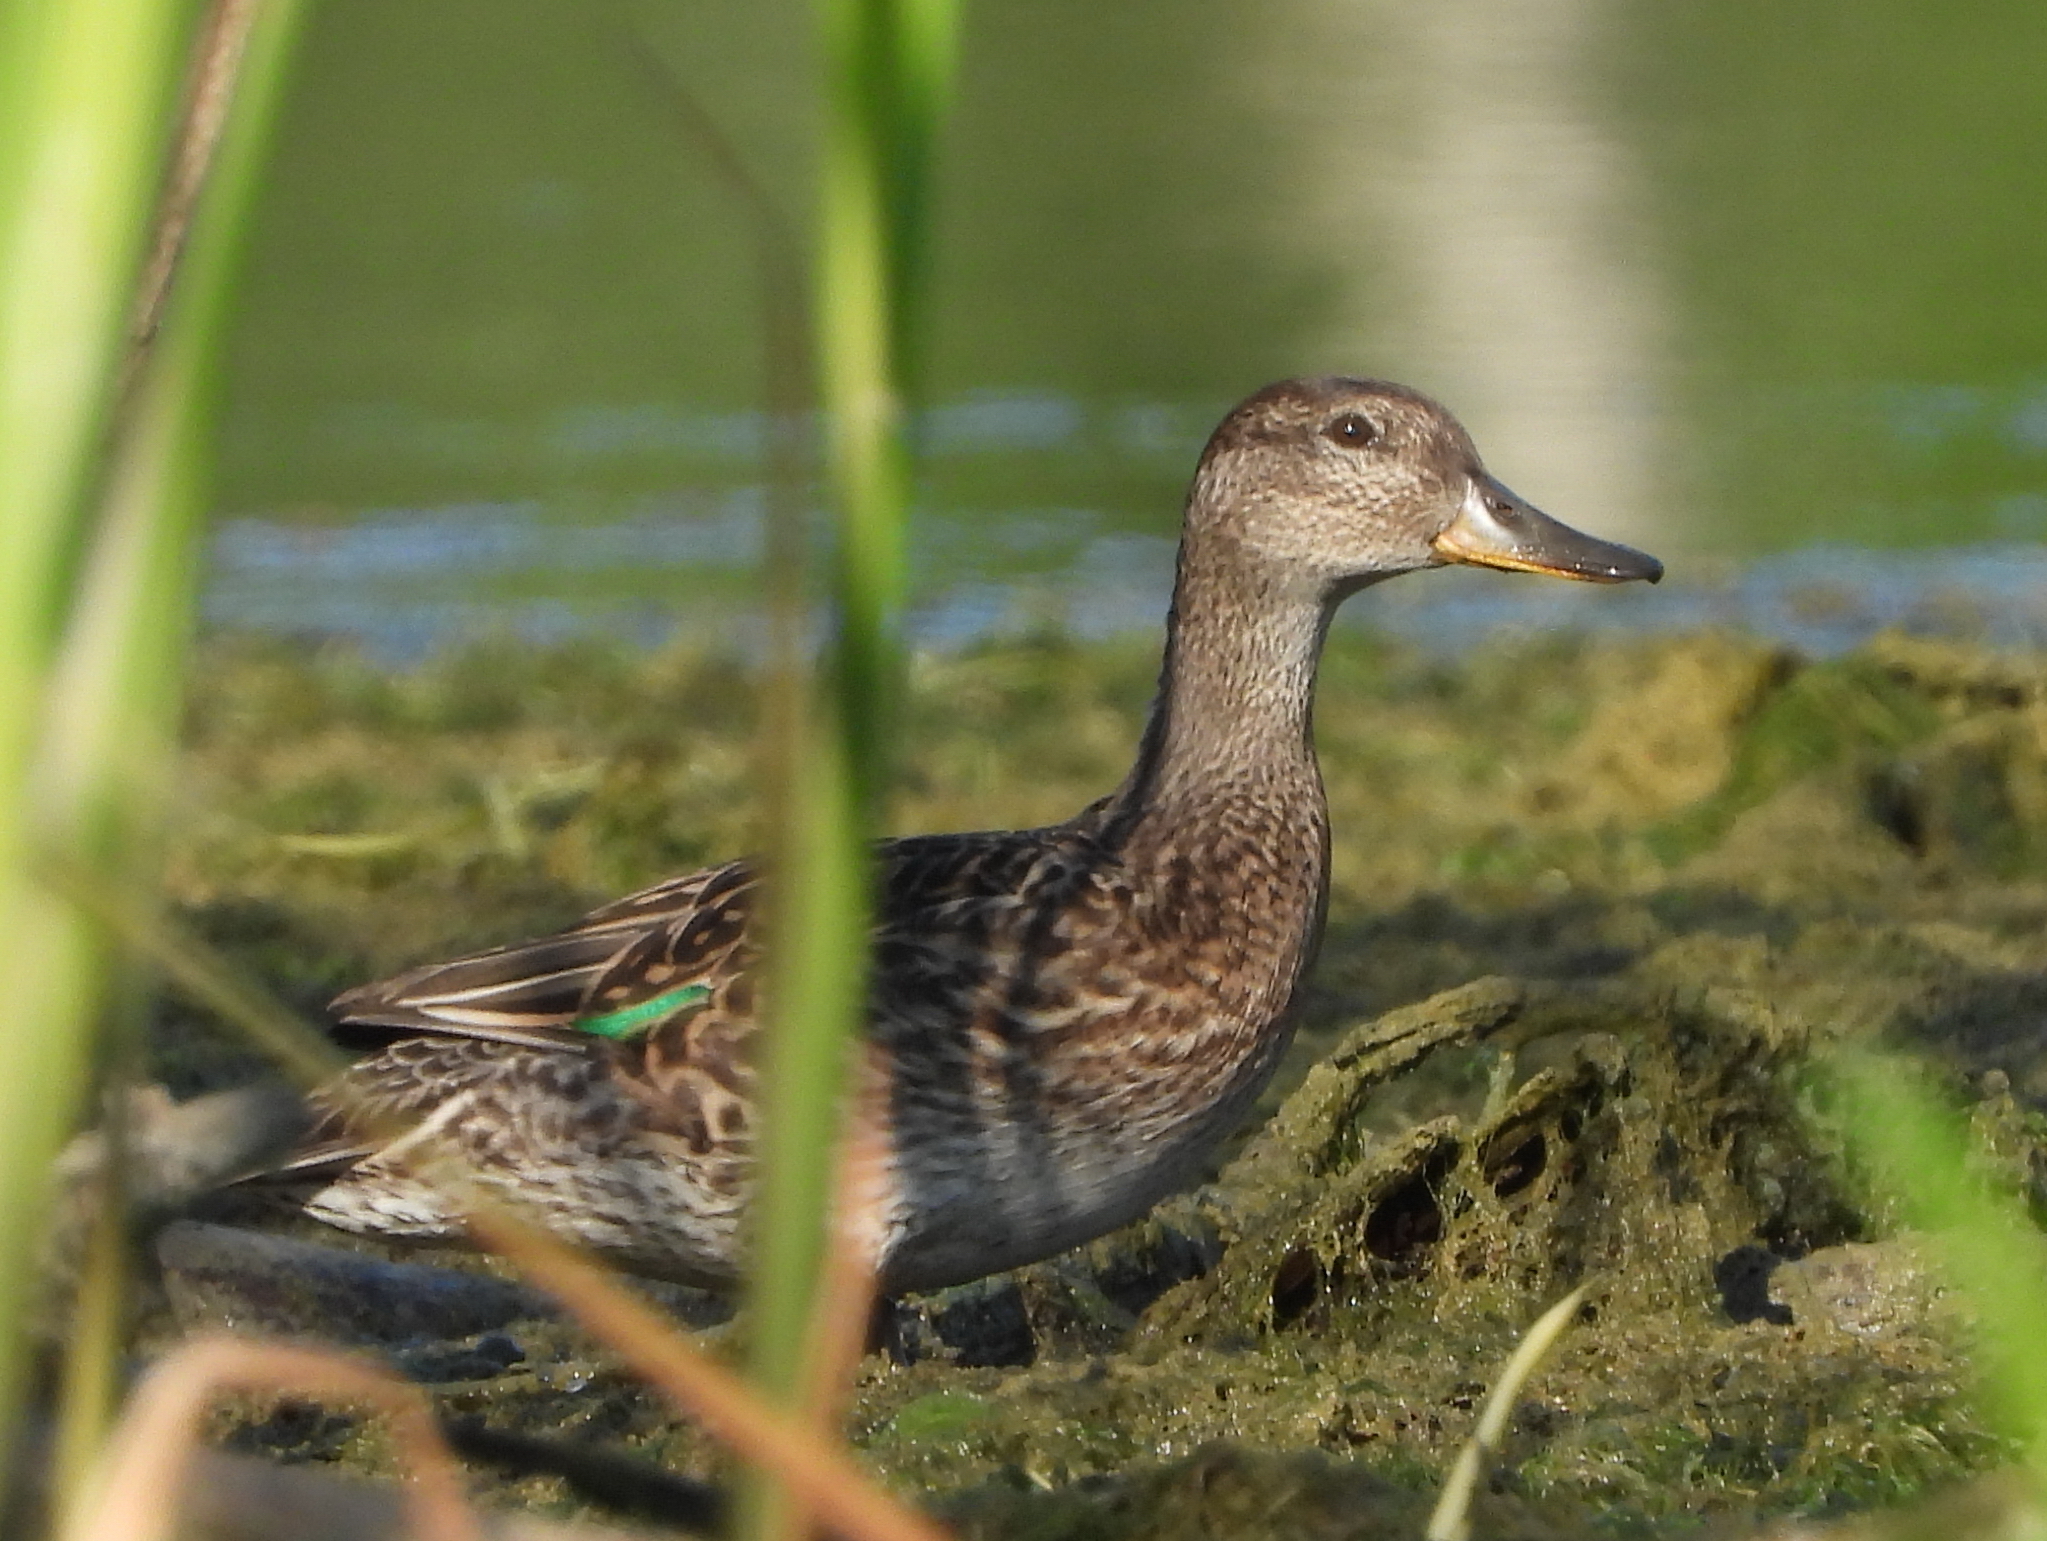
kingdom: Animalia
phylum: Chordata
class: Aves
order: Anseriformes
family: Anatidae
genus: Anas
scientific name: Anas crecca
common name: Eurasian teal
